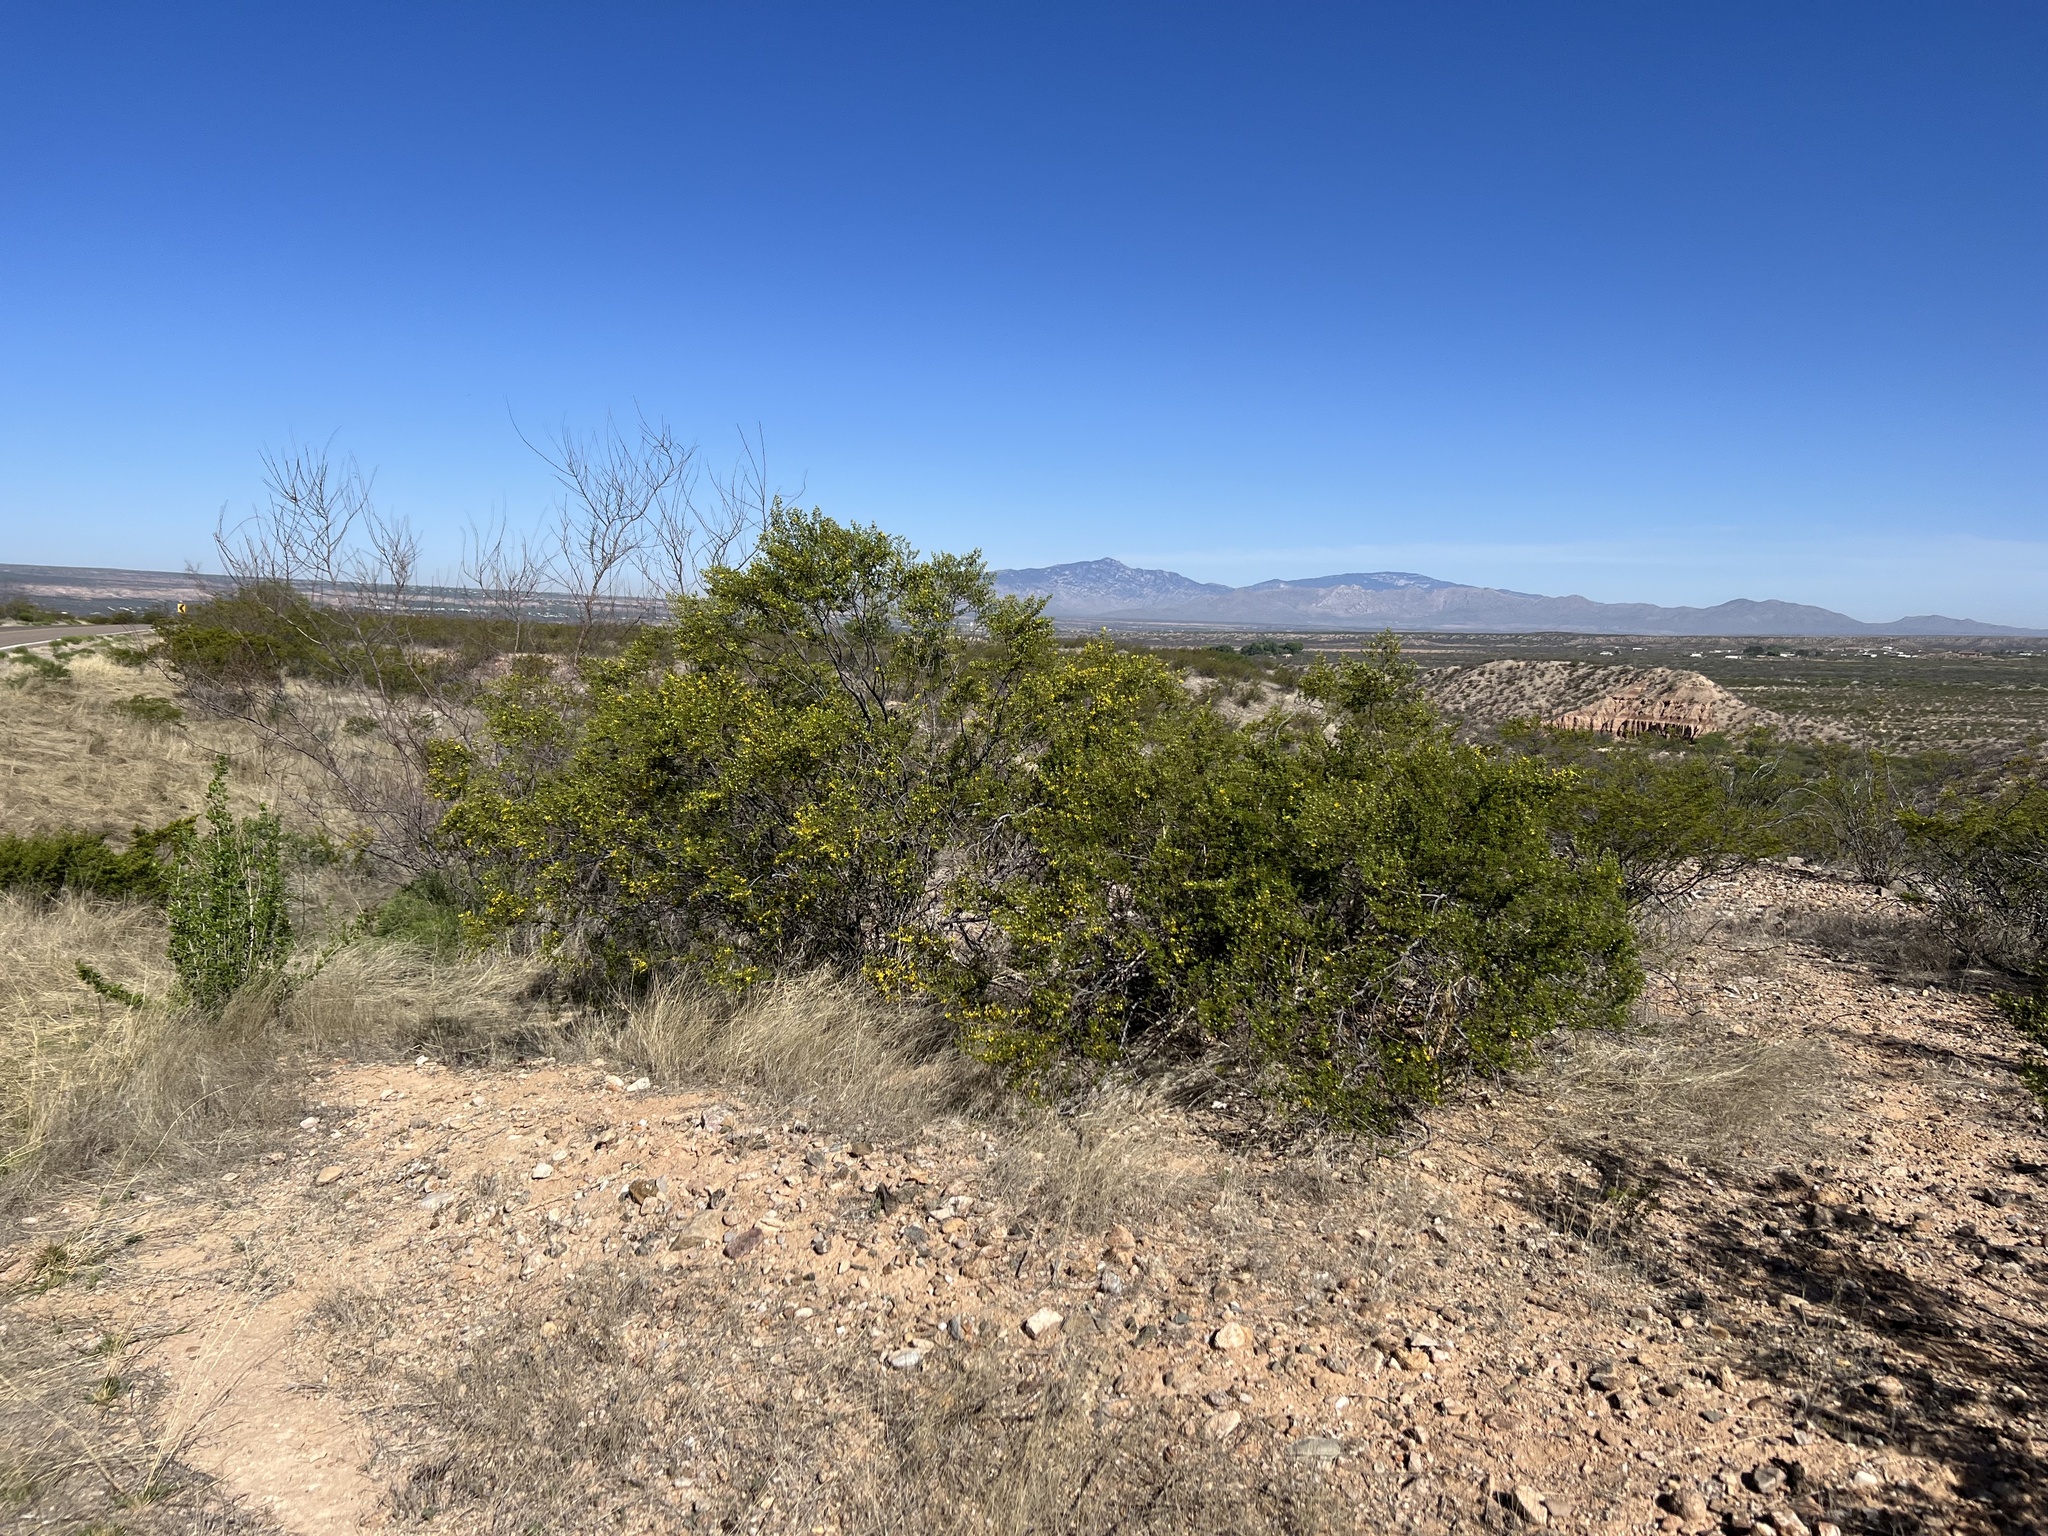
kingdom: Plantae
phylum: Tracheophyta
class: Magnoliopsida
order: Zygophyllales
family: Zygophyllaceae
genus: Larrea
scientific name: Larrea tridentata
